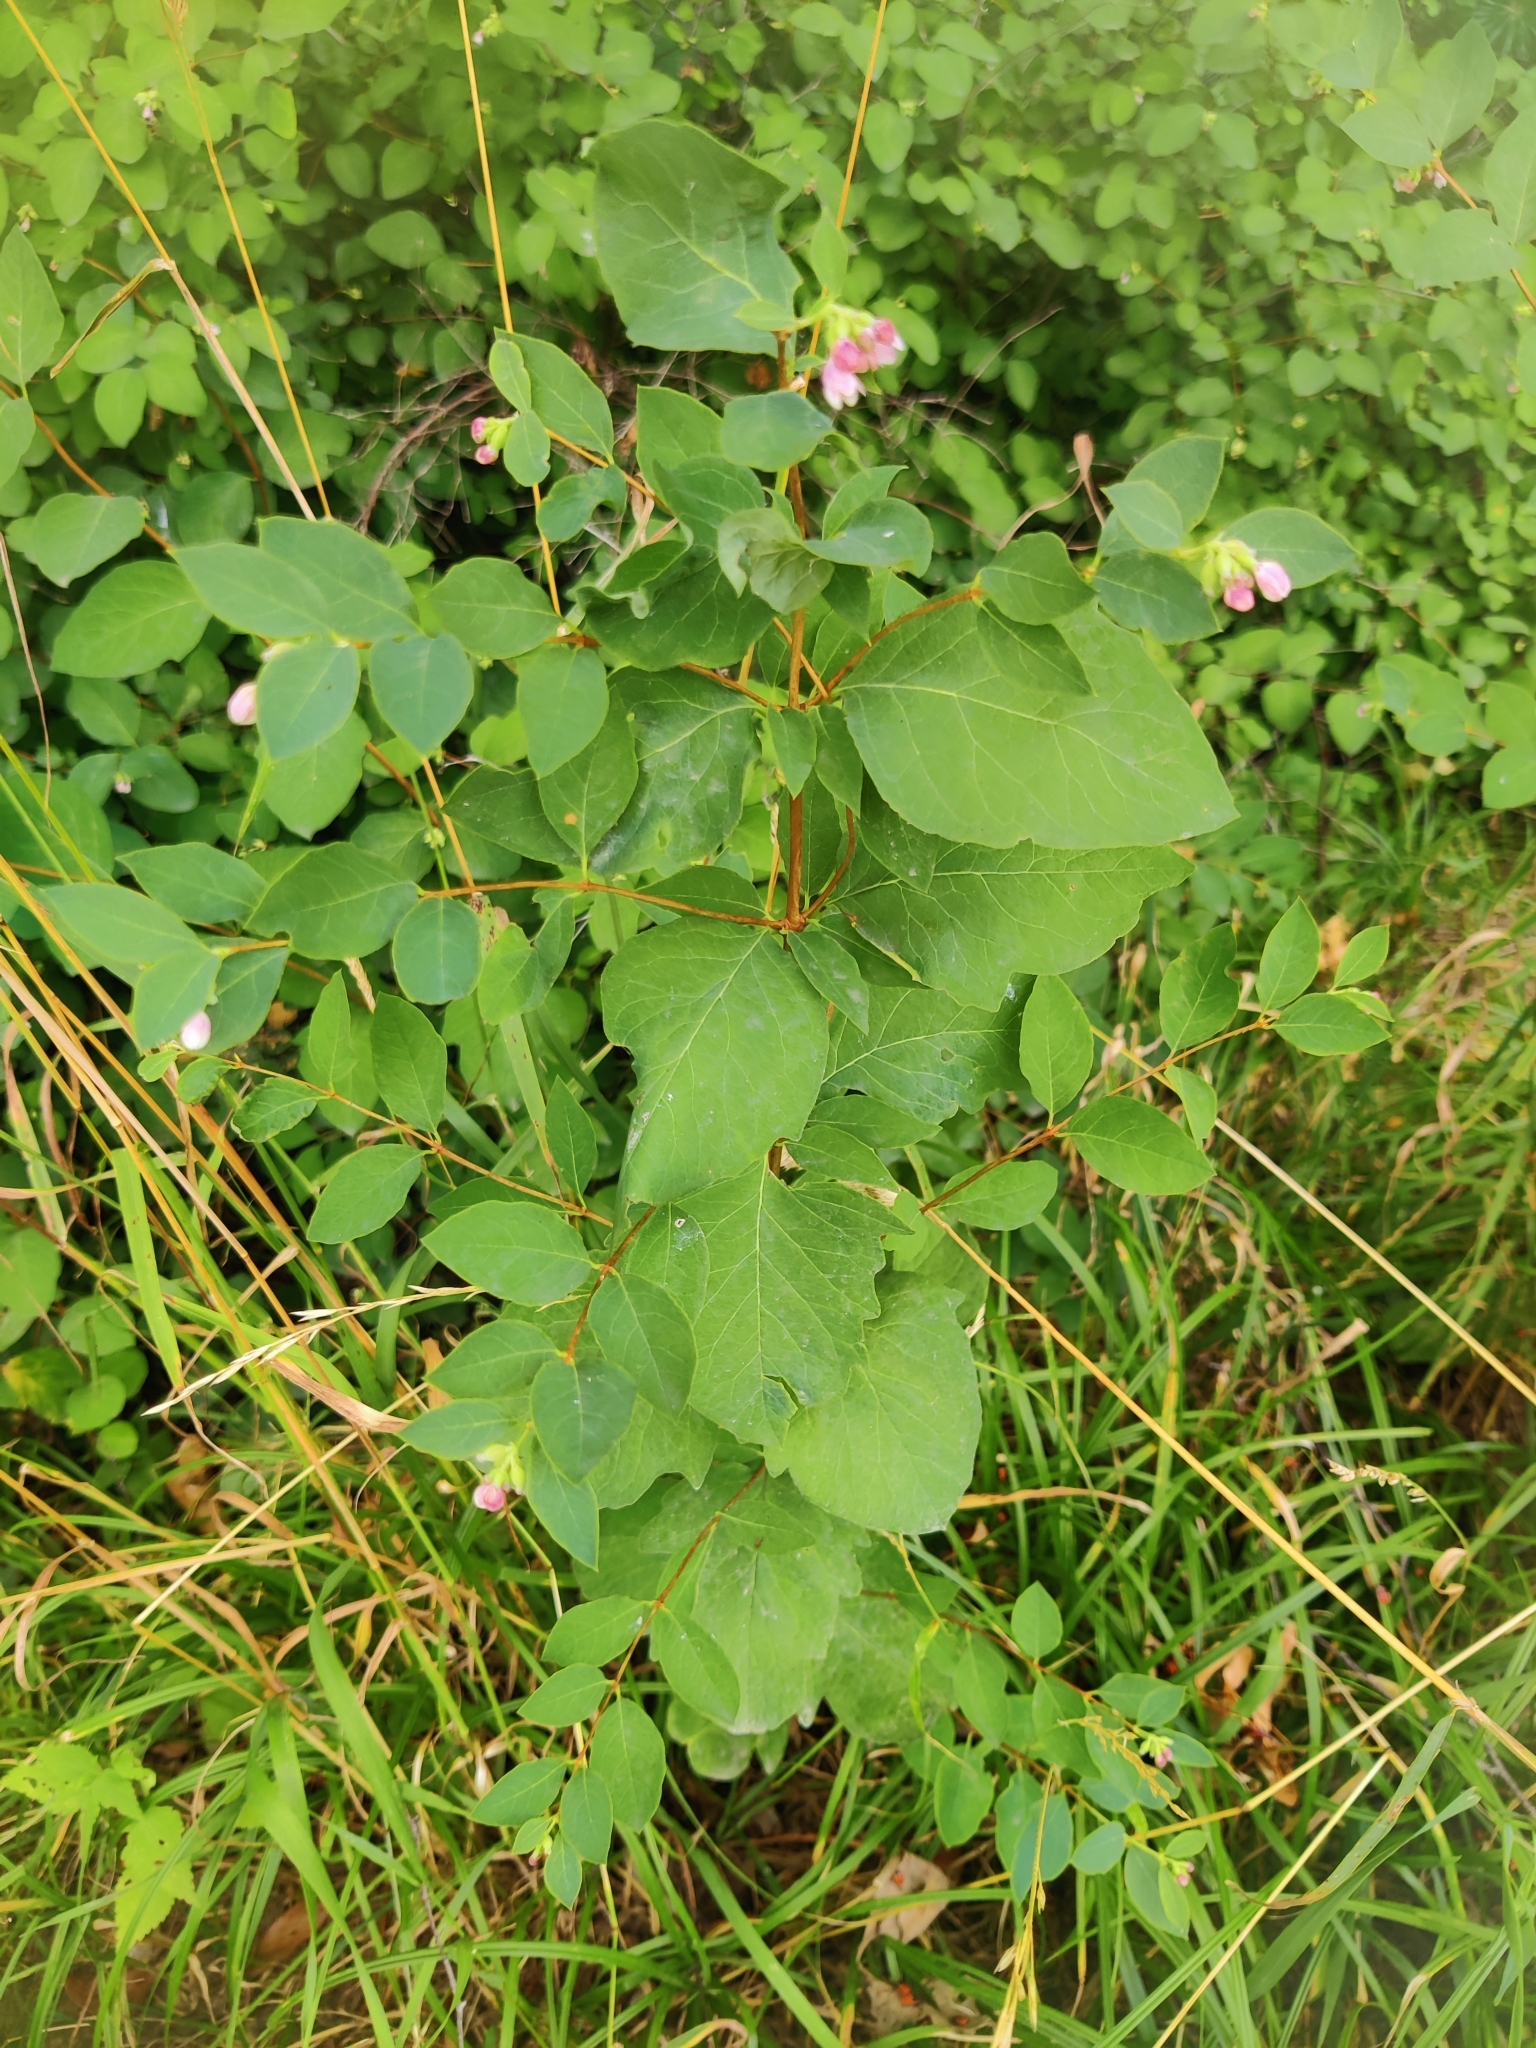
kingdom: Plantae
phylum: Tracheophyta
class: Magnoliopsida
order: Dipsacales
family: Caprifoliaceae
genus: Symphoricarpos
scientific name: Symphoricarpos albus
